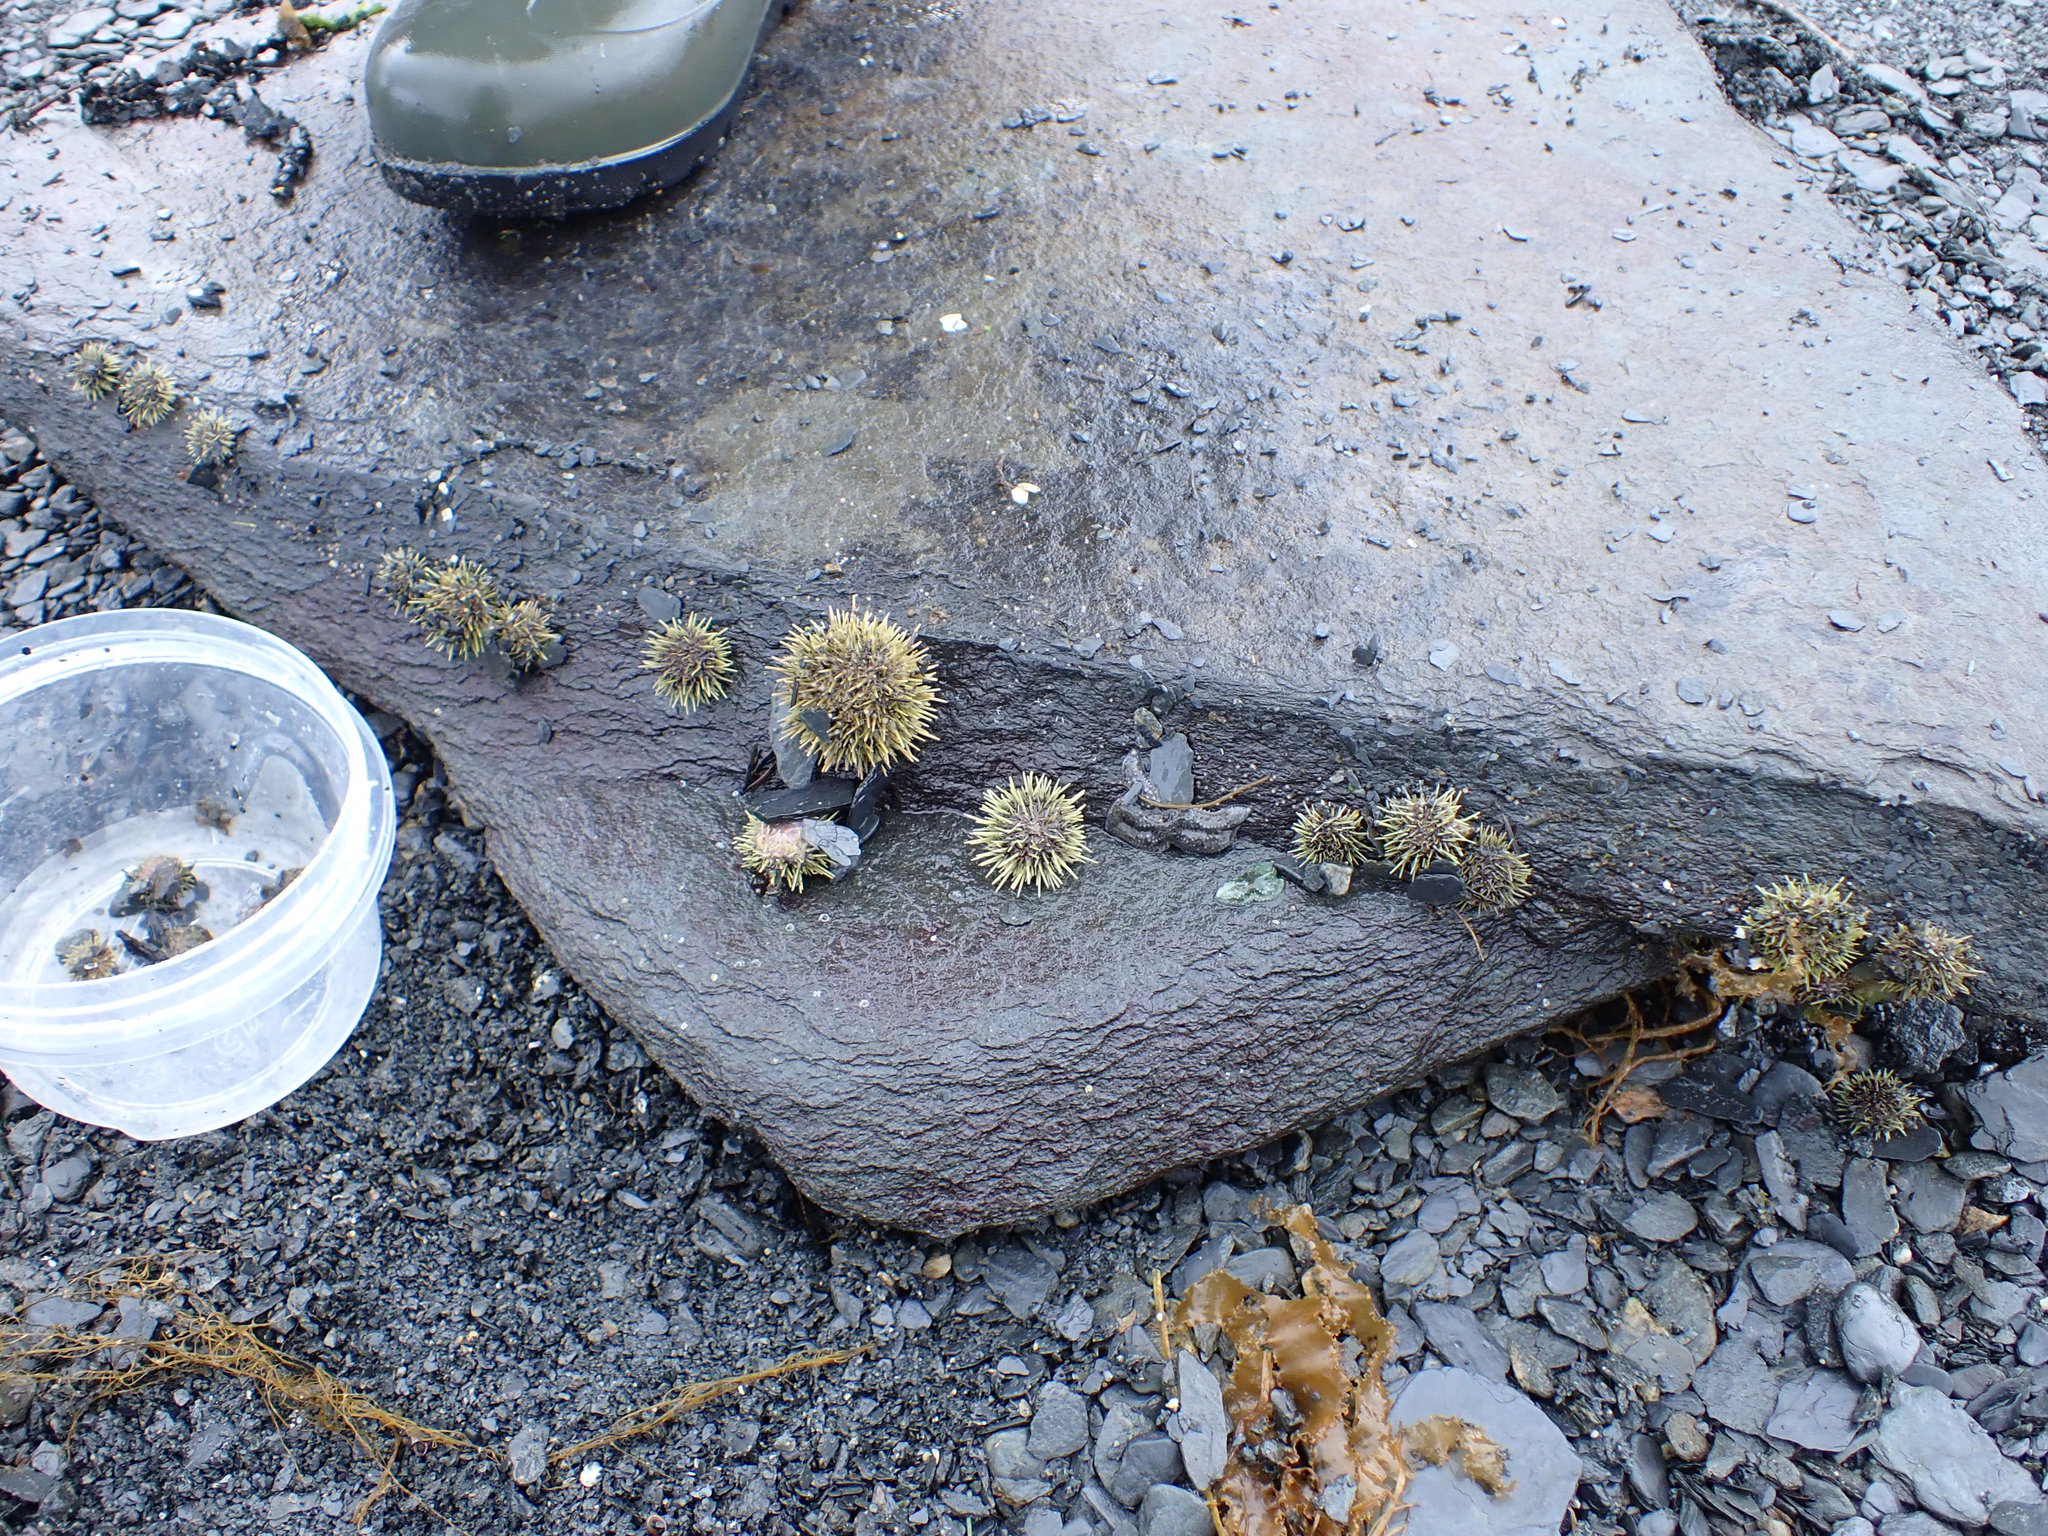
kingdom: Animalia
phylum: Echinodermata
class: Echinoidea
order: Camarodonta
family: Strongylocentrotidae
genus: Strongylocentrotus
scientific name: Strongylocentrotus droebachiensis
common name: Northern sea urchin
